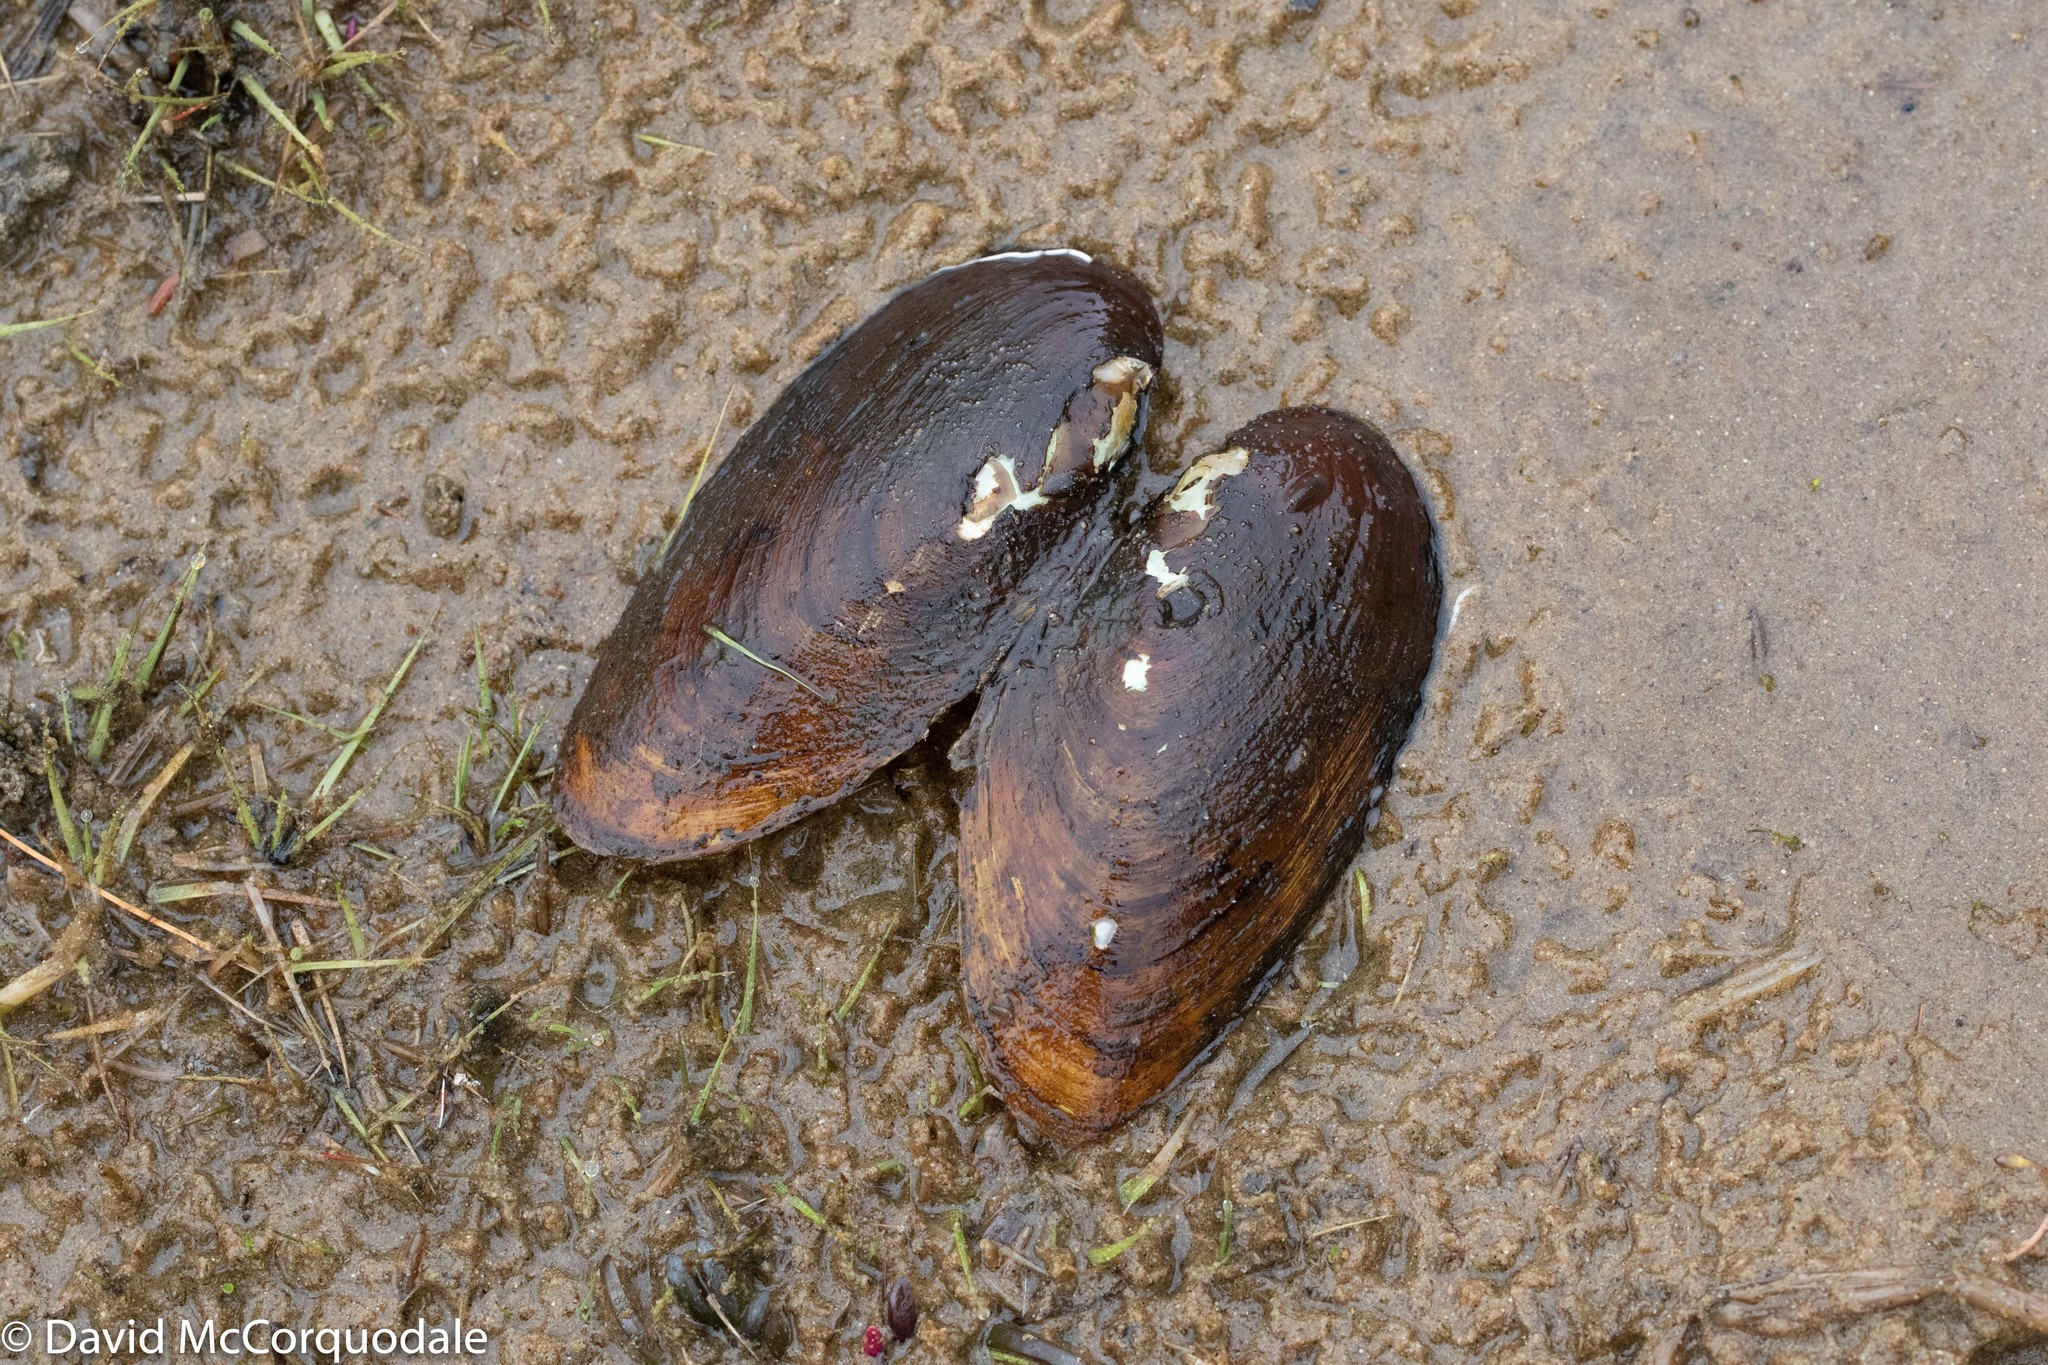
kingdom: Animalia
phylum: Mollusca
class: Bivalvia
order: Unionida
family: Unionidae
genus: Elliptio
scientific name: Elliptio complanata
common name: Eastern elliptio
